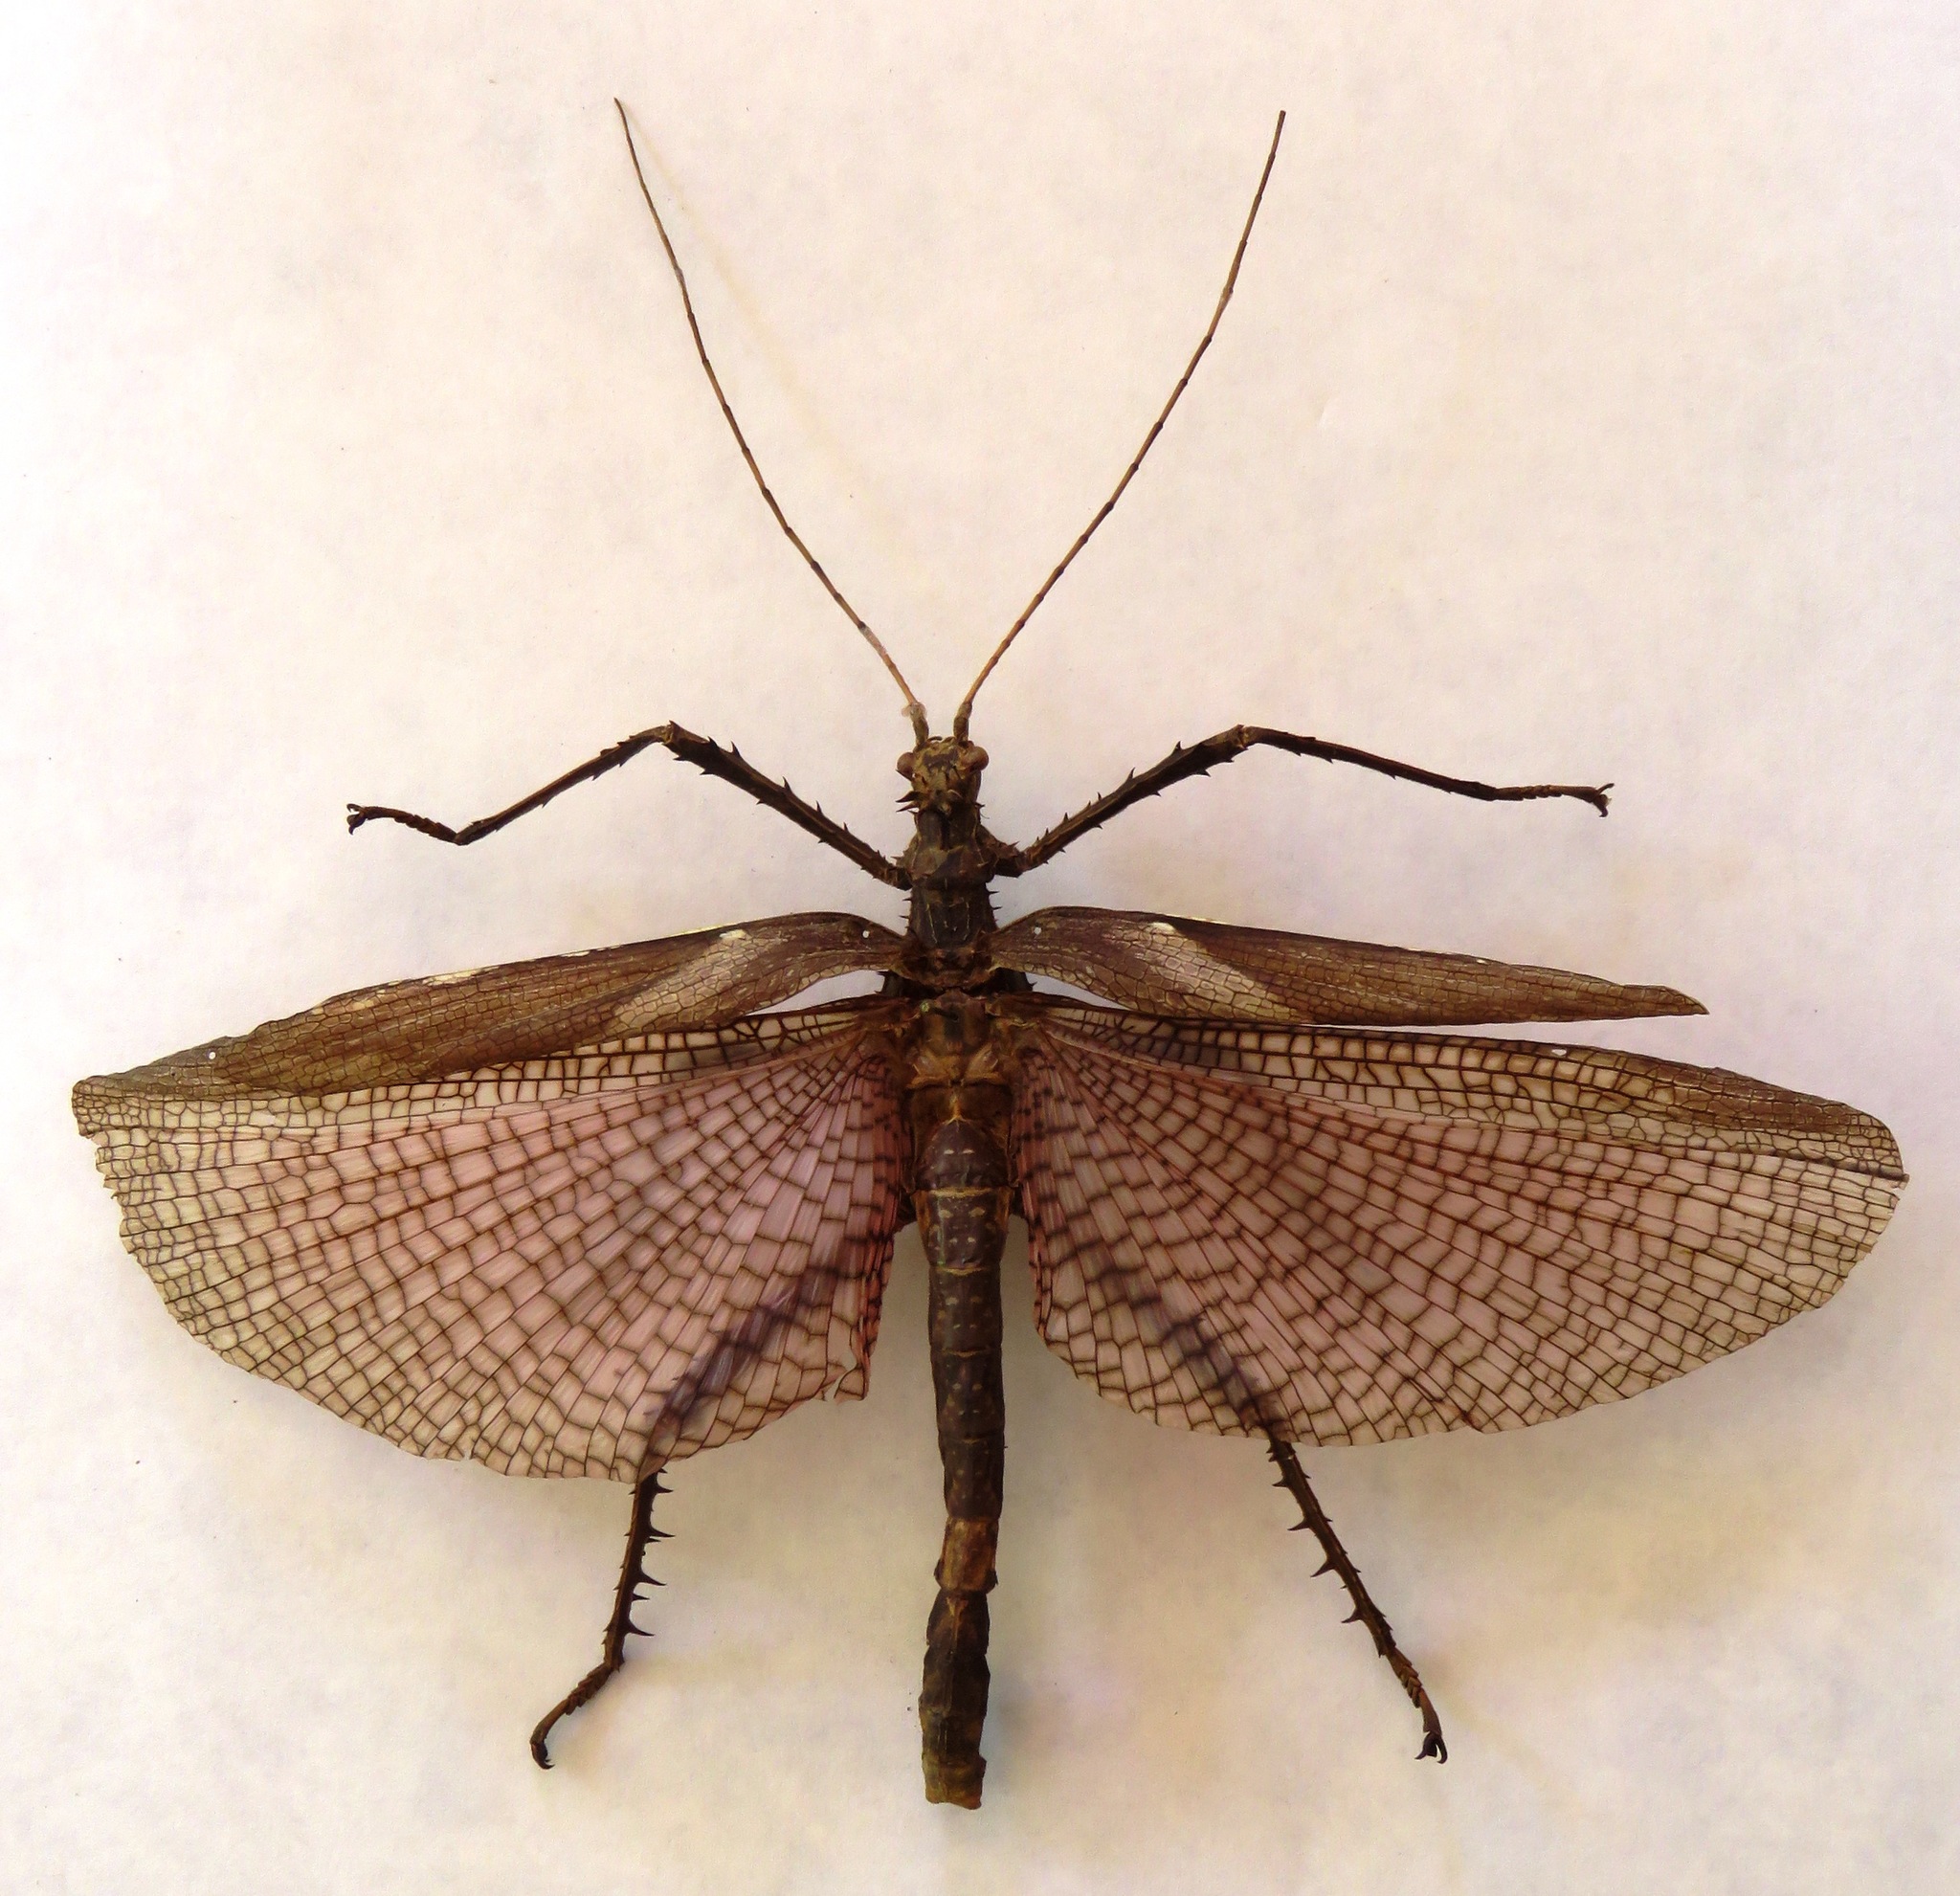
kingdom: Animalia
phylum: Arthropoda
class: Insecta
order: Phasmida
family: Heteropterygidae
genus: Heteropteryx
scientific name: Heteropteryx dilatata
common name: Jungle nymph
